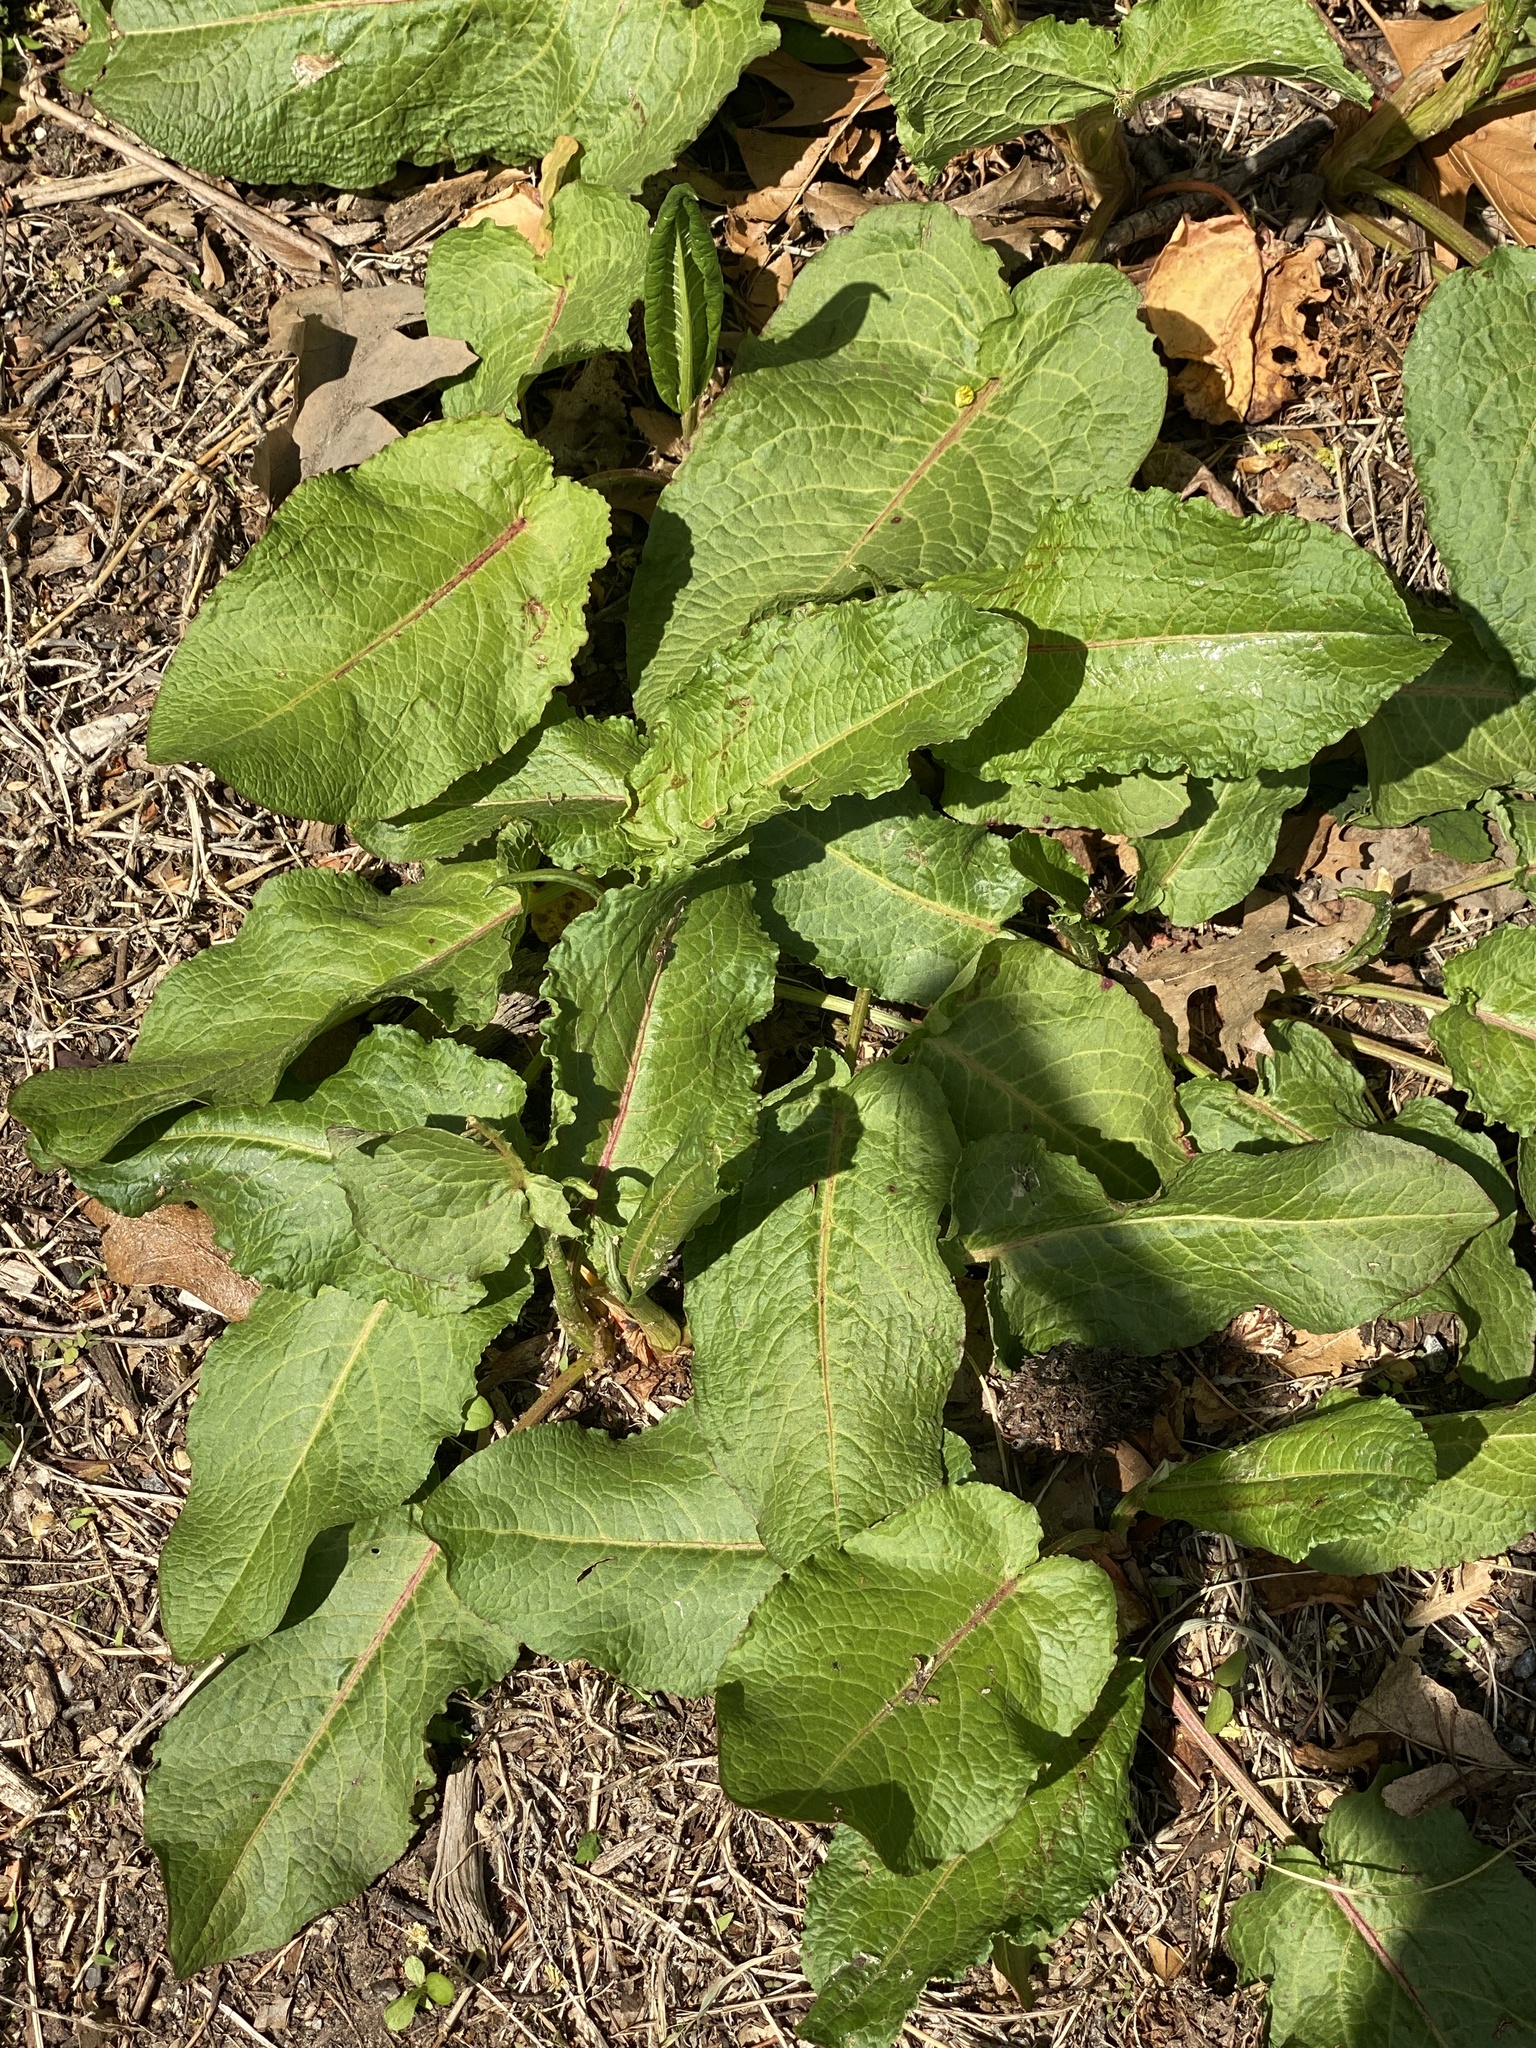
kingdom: Plantae
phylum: Tracheophyta
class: Magnoliopsida
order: Caryophyllales
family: Polygonaceae
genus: Rumex
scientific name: Rumex obtusifolius
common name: Bitter dock
